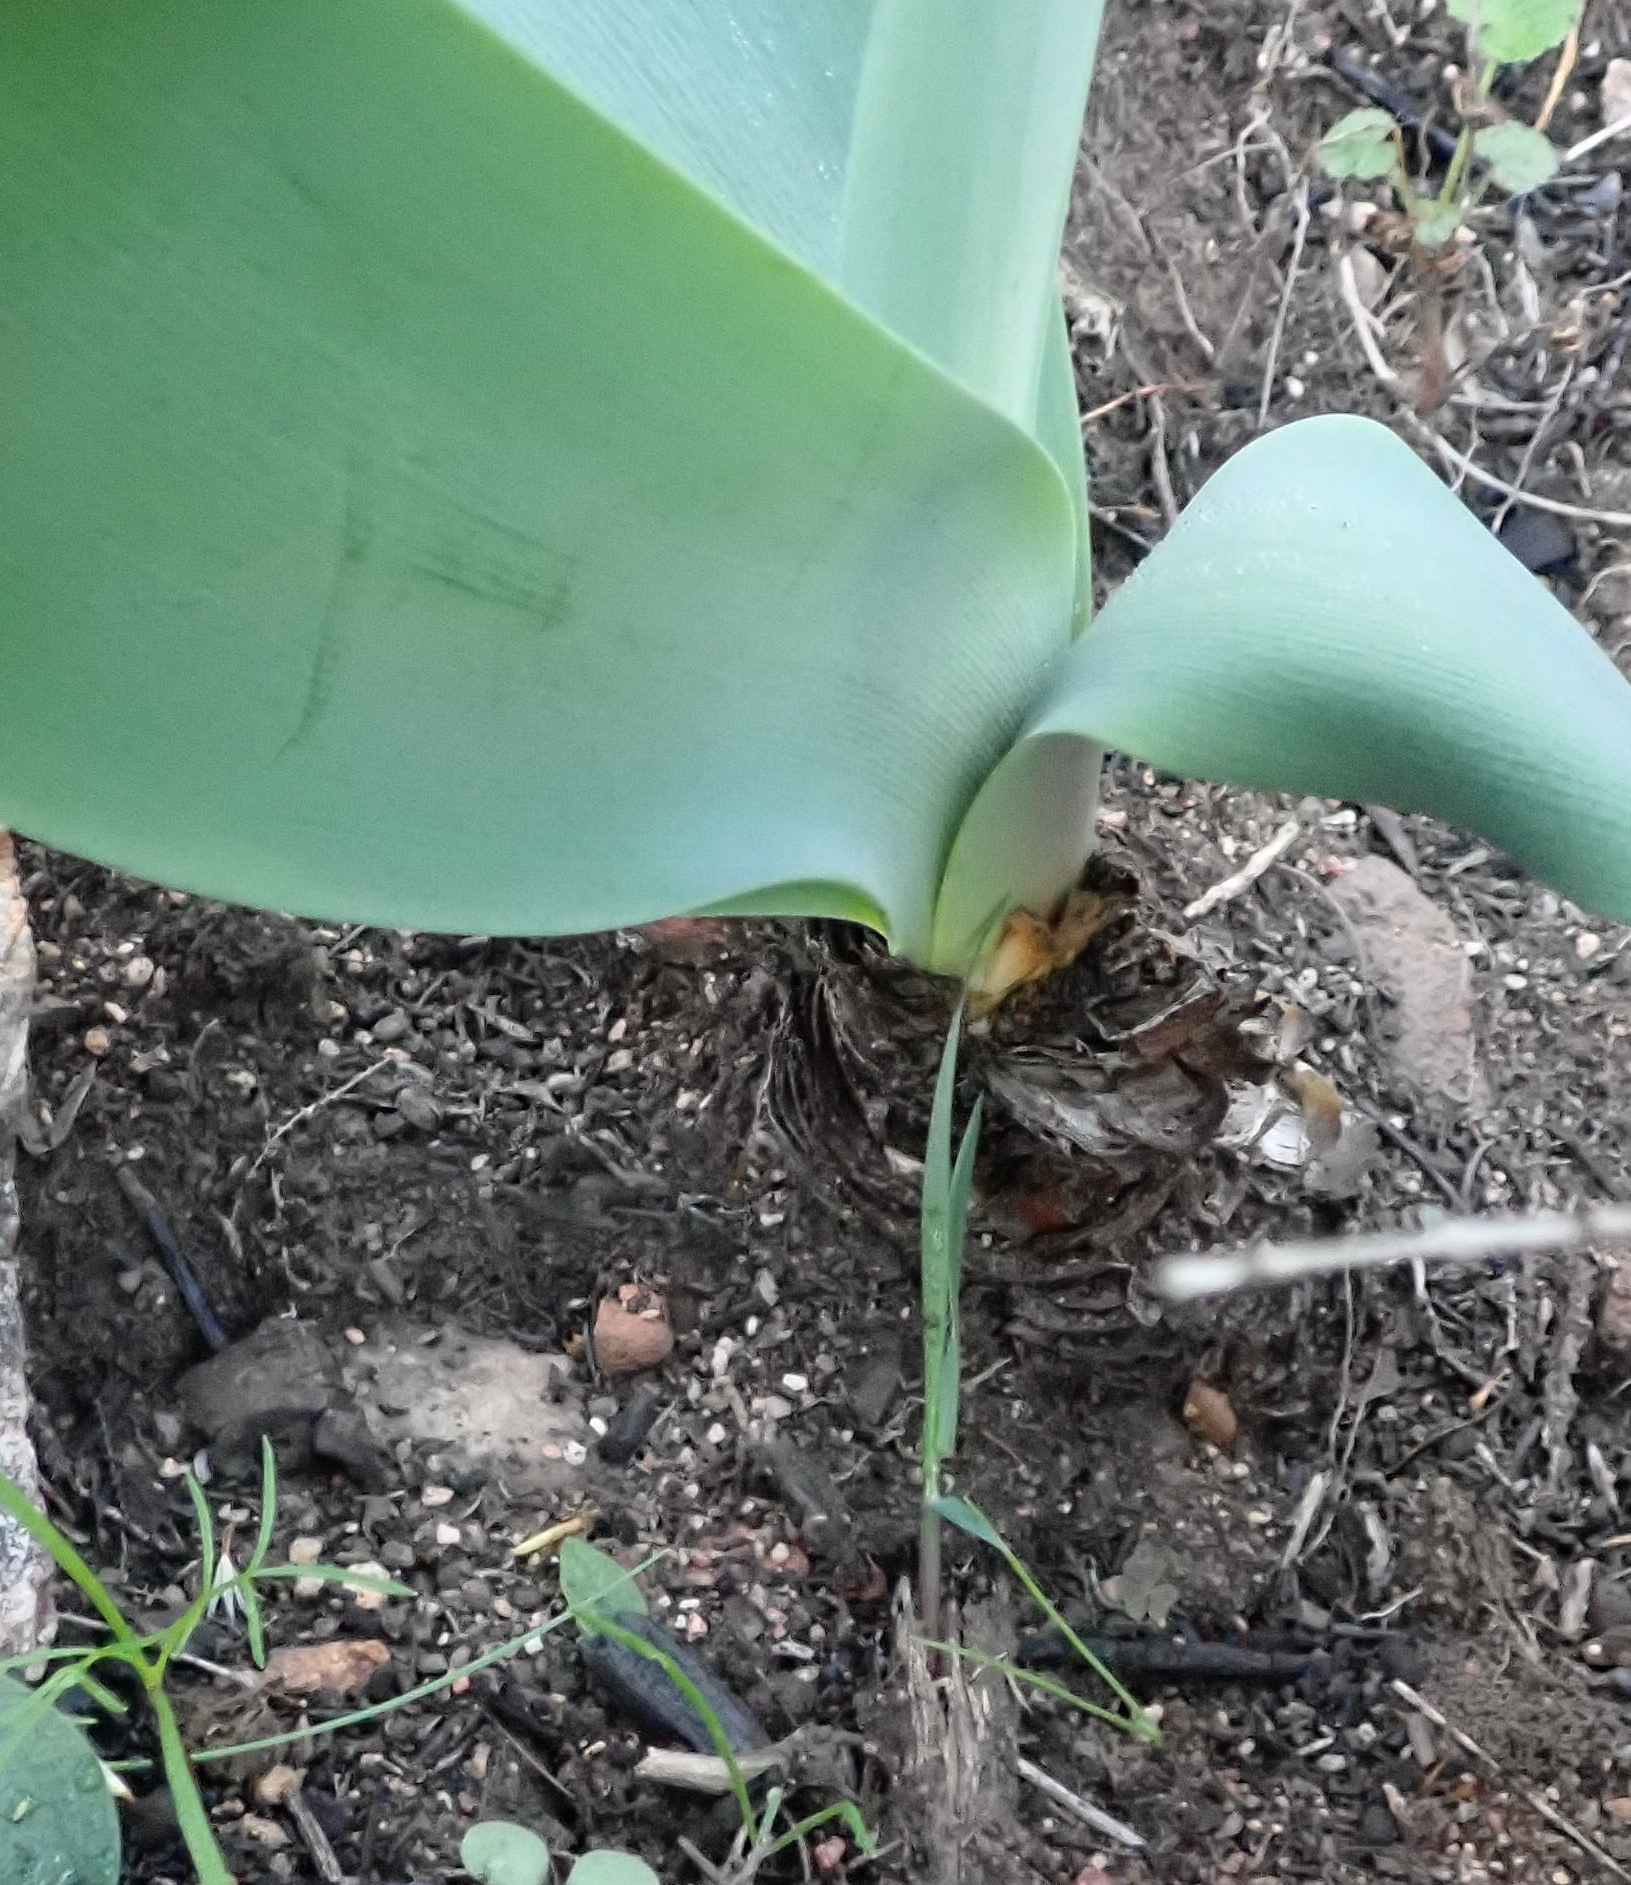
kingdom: Plantae
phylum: Tracheophyta
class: Liliopsida
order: Asparagales
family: Amaryllidaceae
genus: Brunsvigia
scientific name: Brunsvigia josephinae
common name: Josephine's-lily
